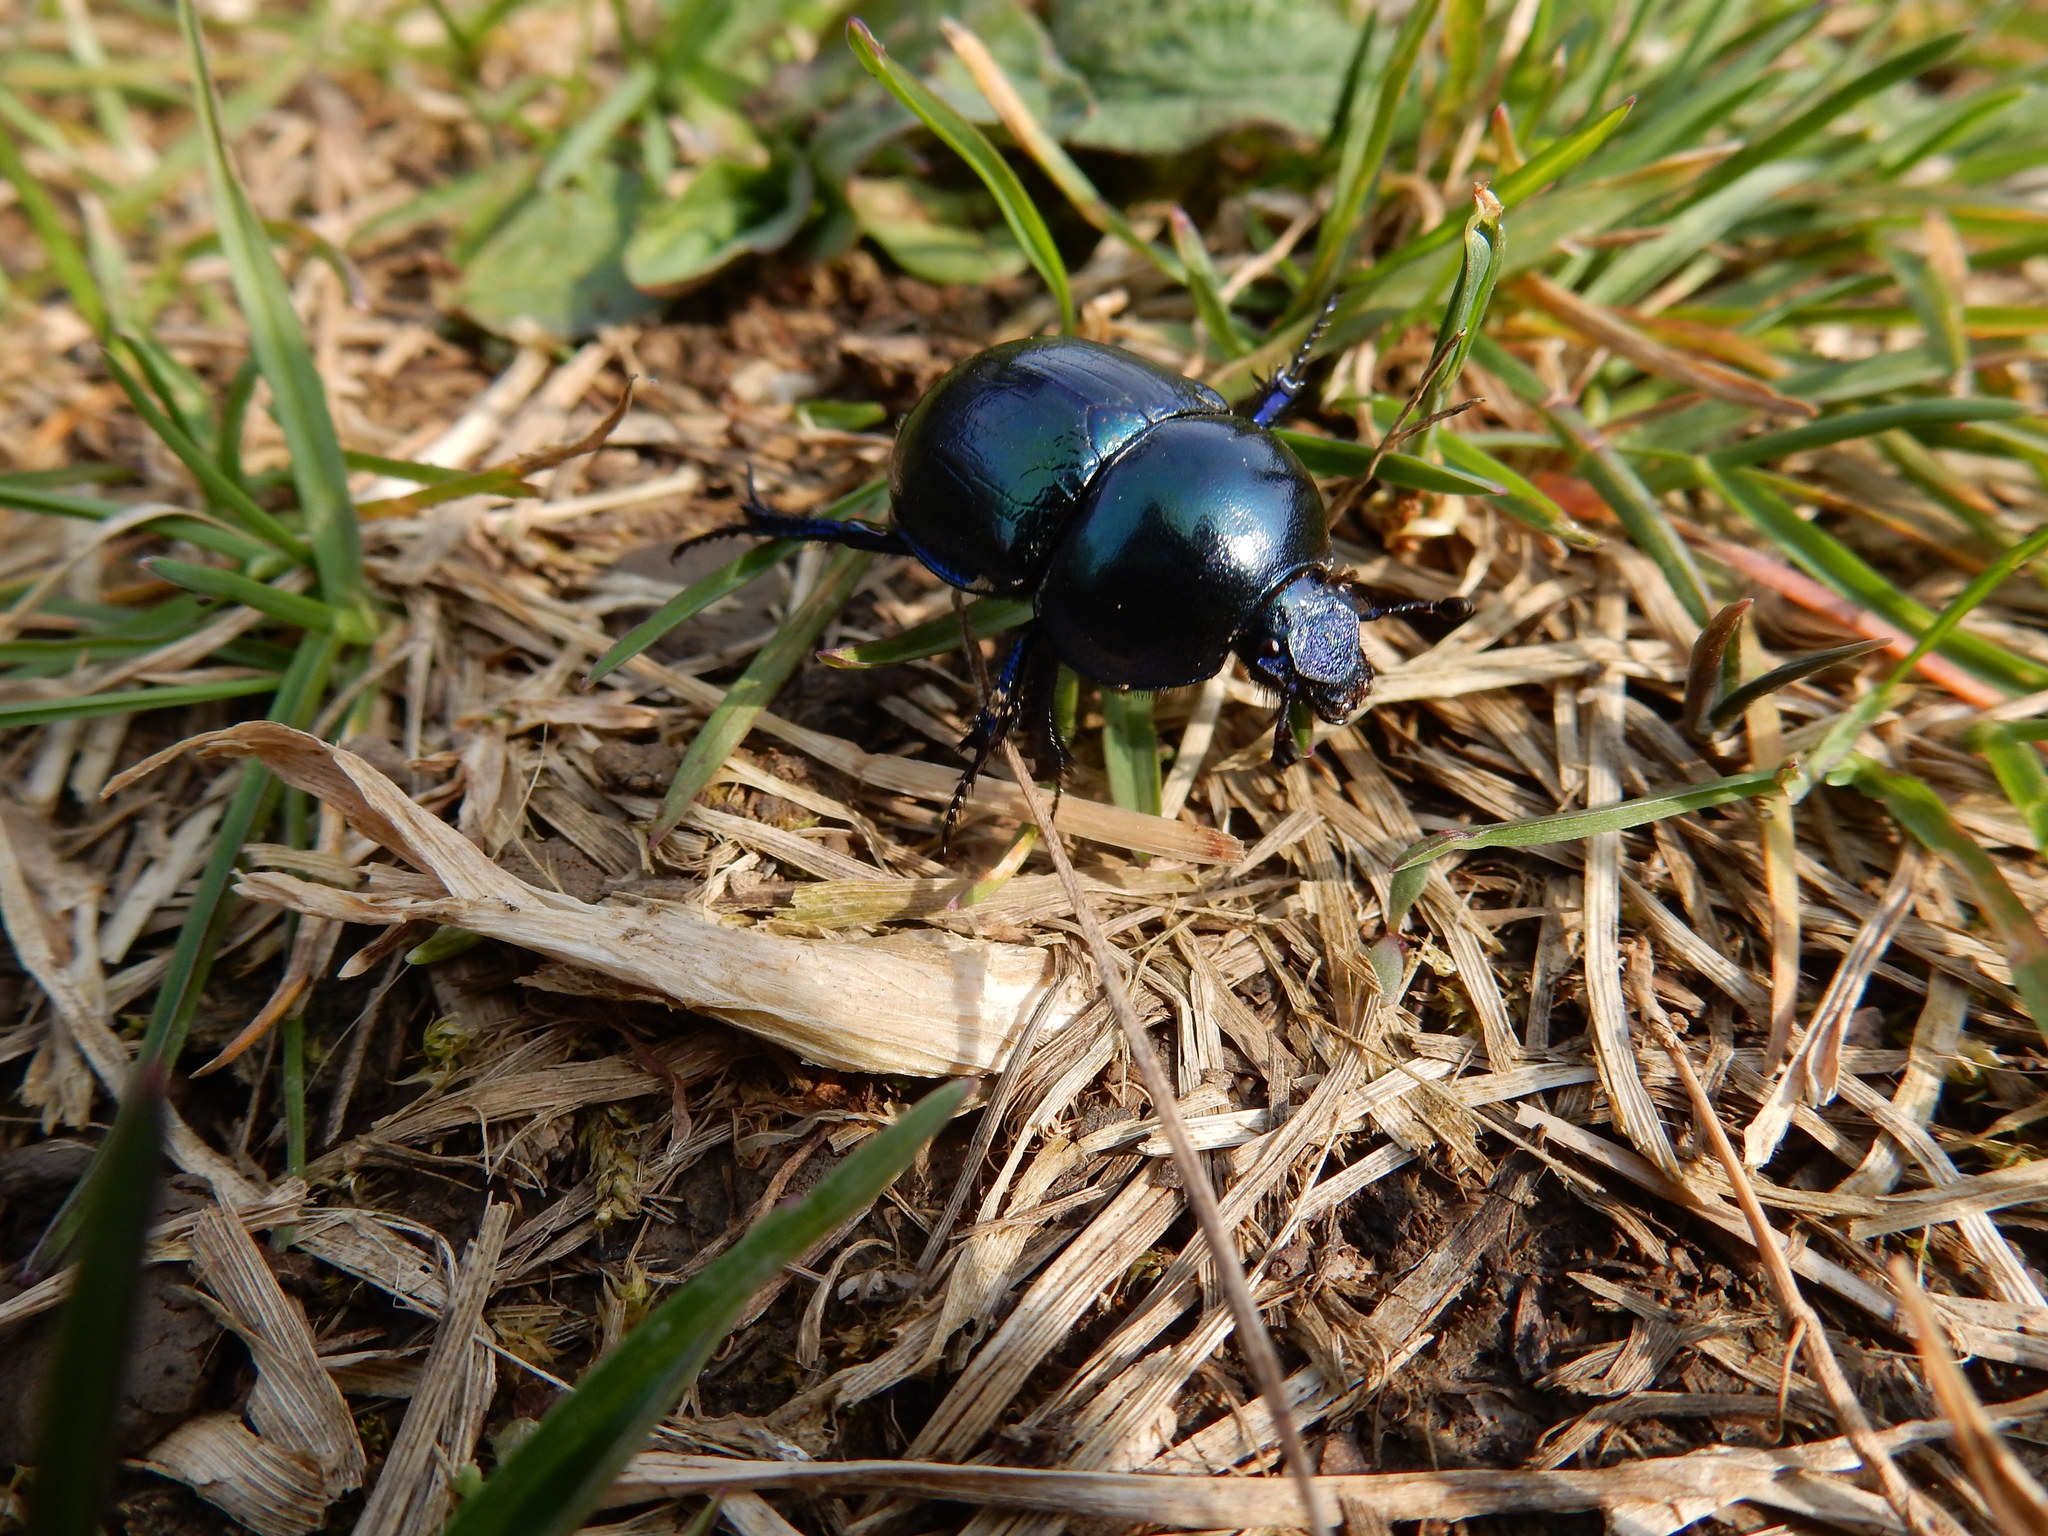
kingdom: Animalia
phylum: Arthropoda
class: Insecta
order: Coleoptera
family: Geotrupidae
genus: Trypocopris
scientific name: Trypocopris vernalis
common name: Spring dumbledor
